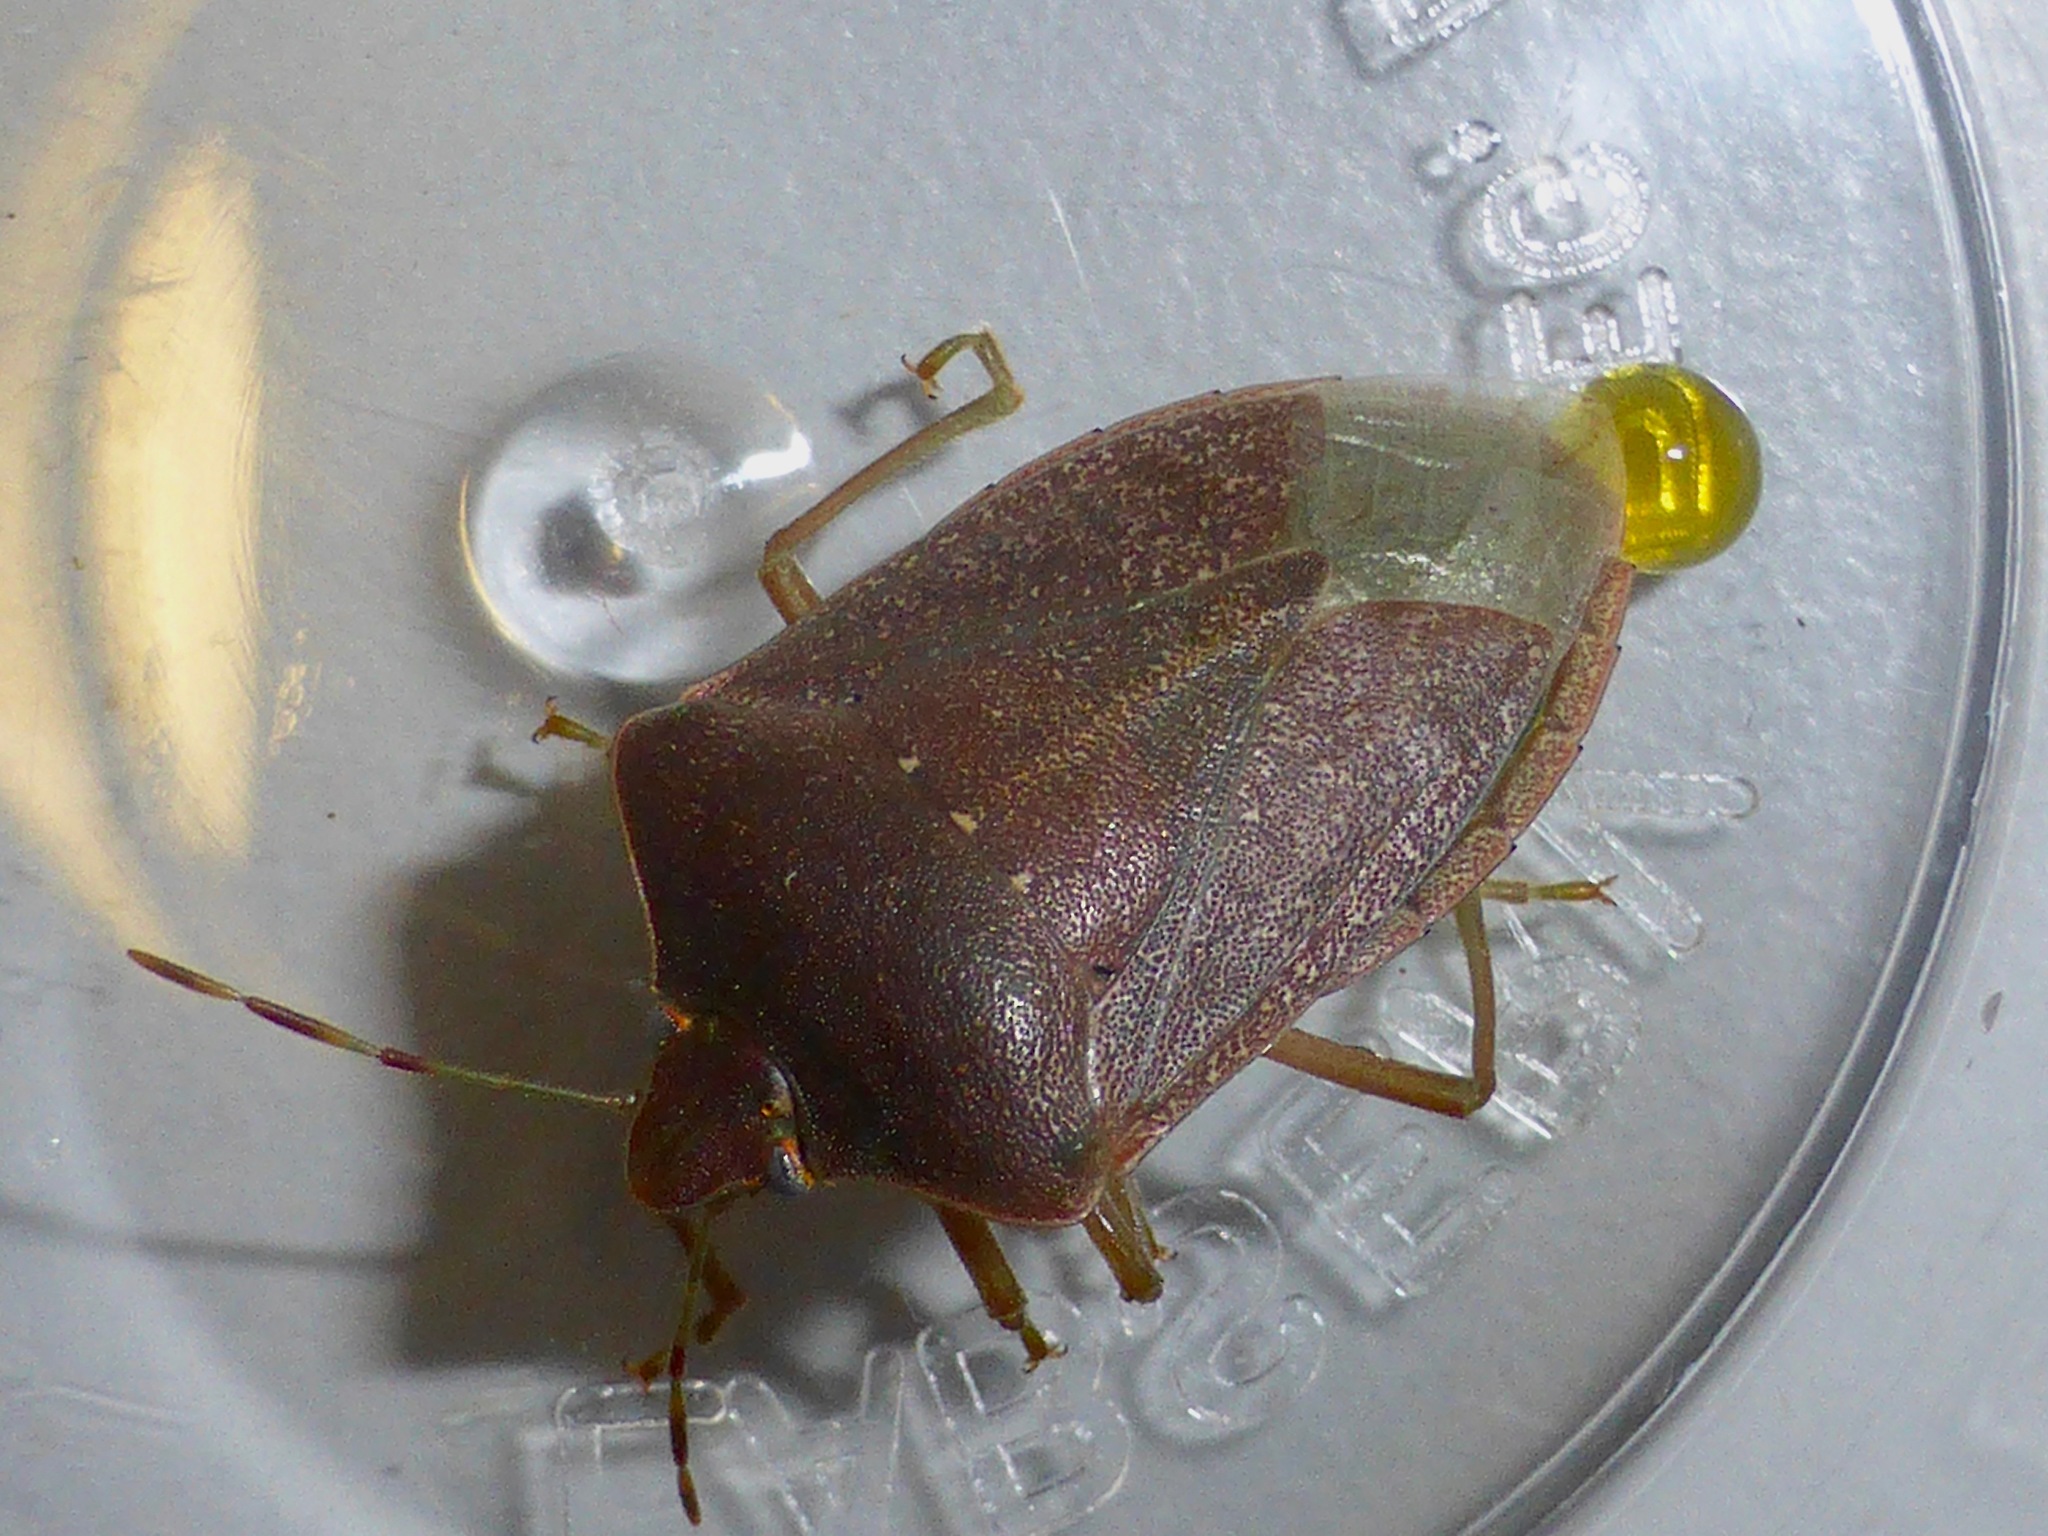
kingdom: Animalia
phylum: Arthropoda
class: Insecta
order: Hemiptera
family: Pentatomidae
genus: Nezara
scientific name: Nezara viridula
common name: Southern green stink bug
